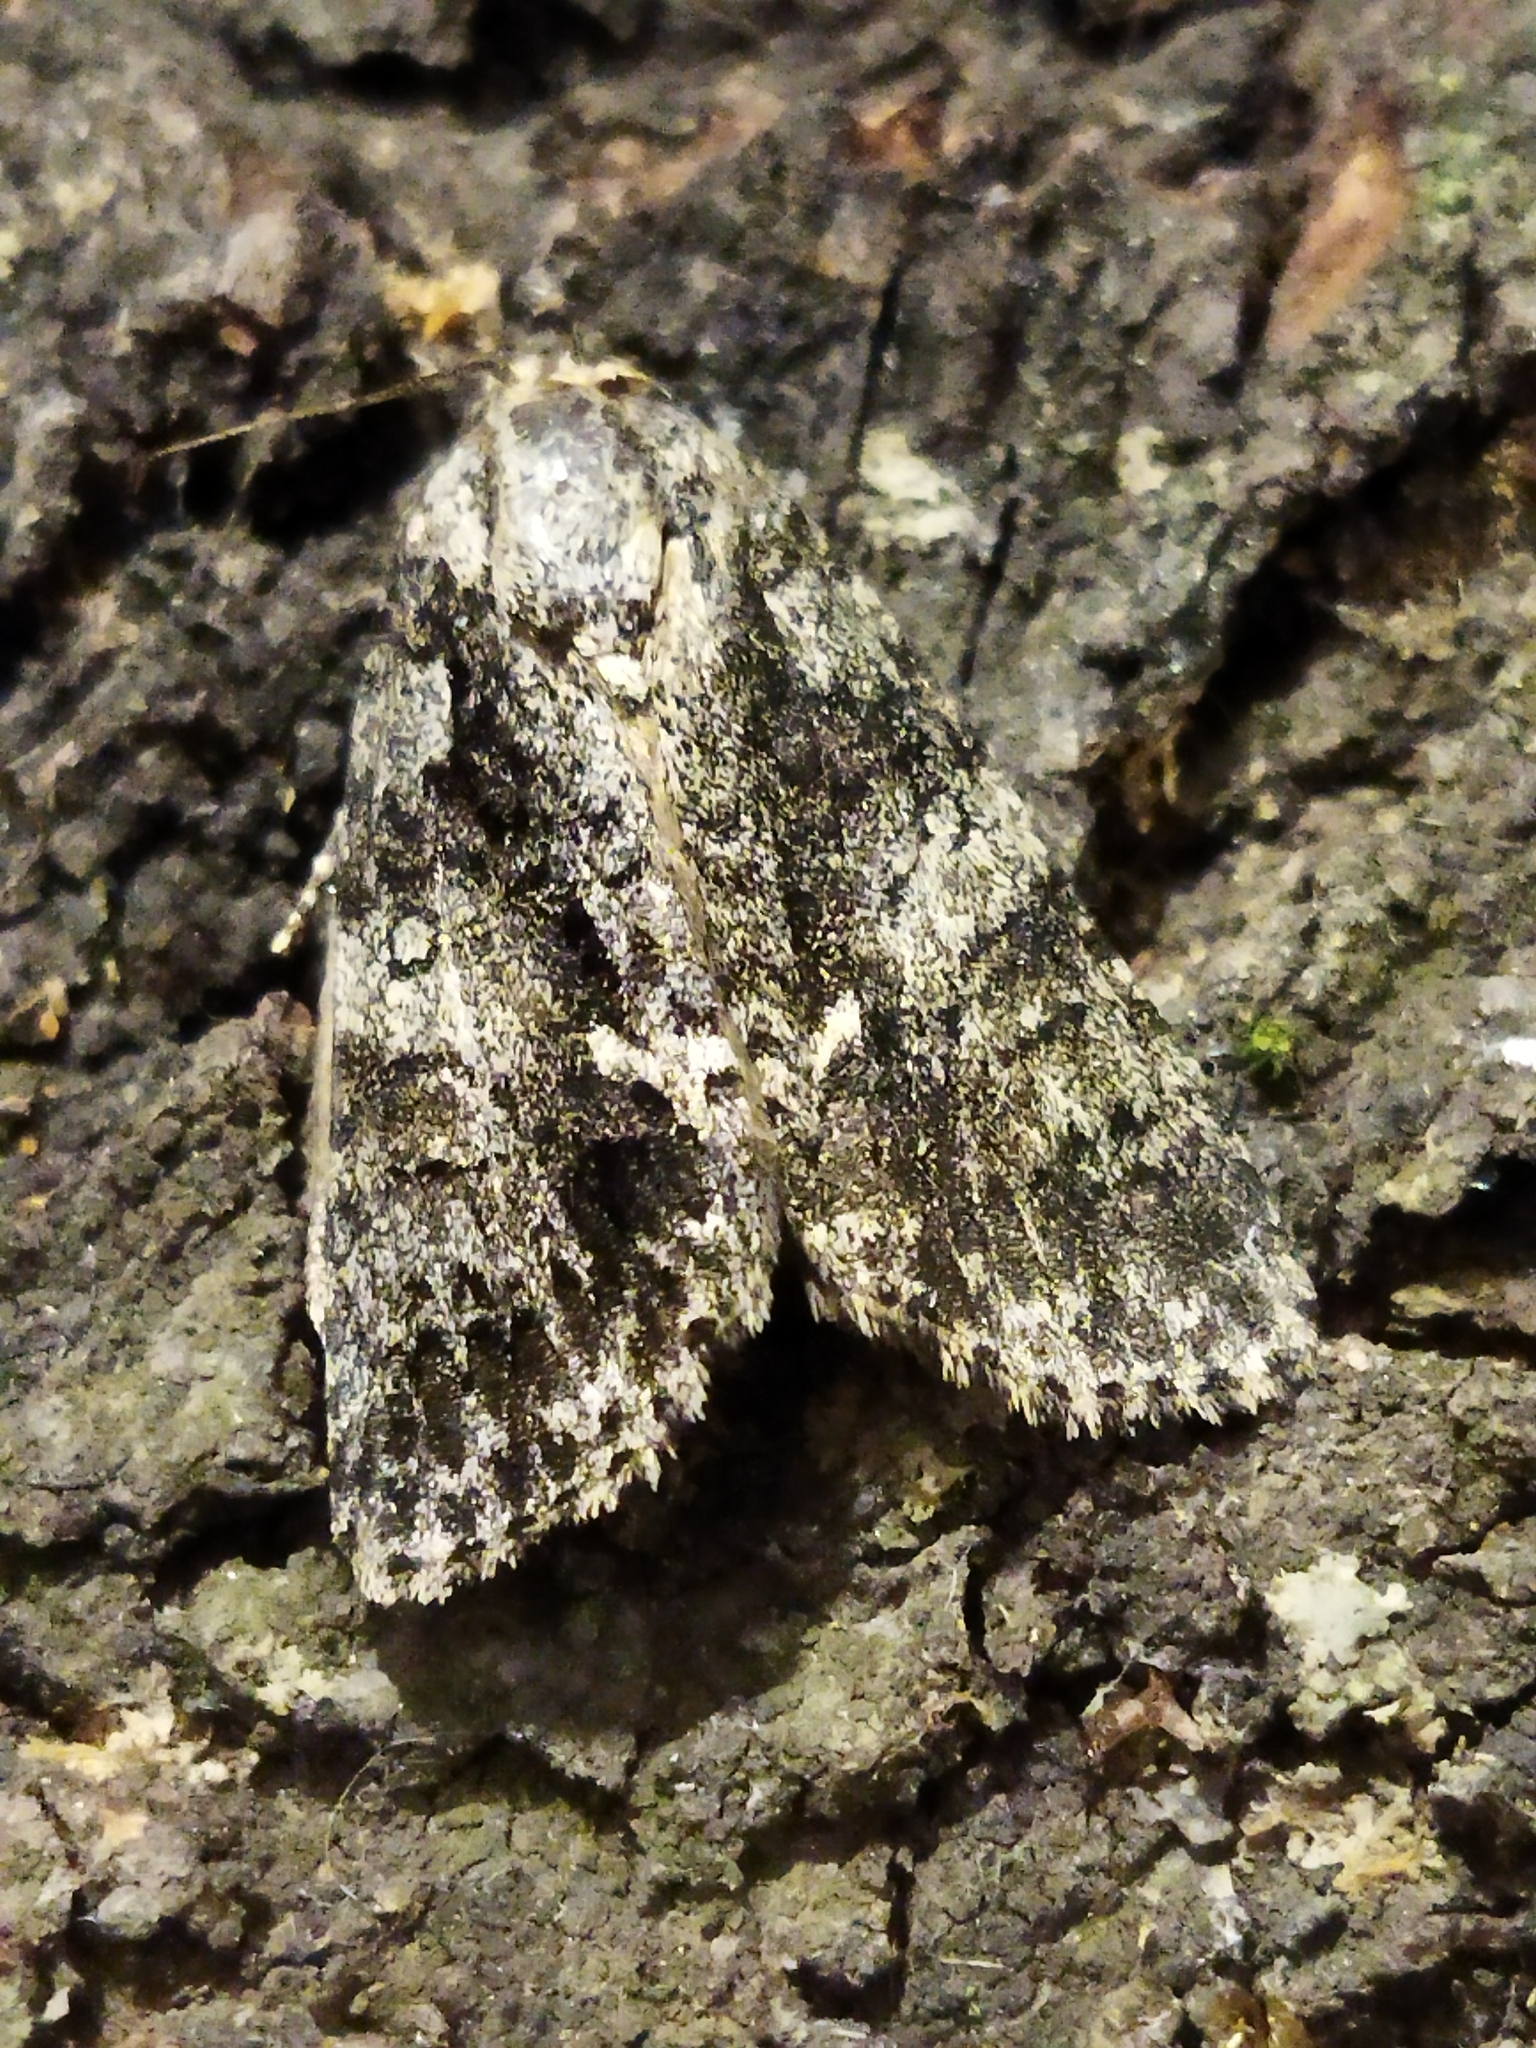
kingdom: Animalia
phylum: Arthropoda
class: Insecta
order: Lepidoptera
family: Noctuidae
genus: Acronicta
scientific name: Acronicta rumicis
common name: Knot grass
